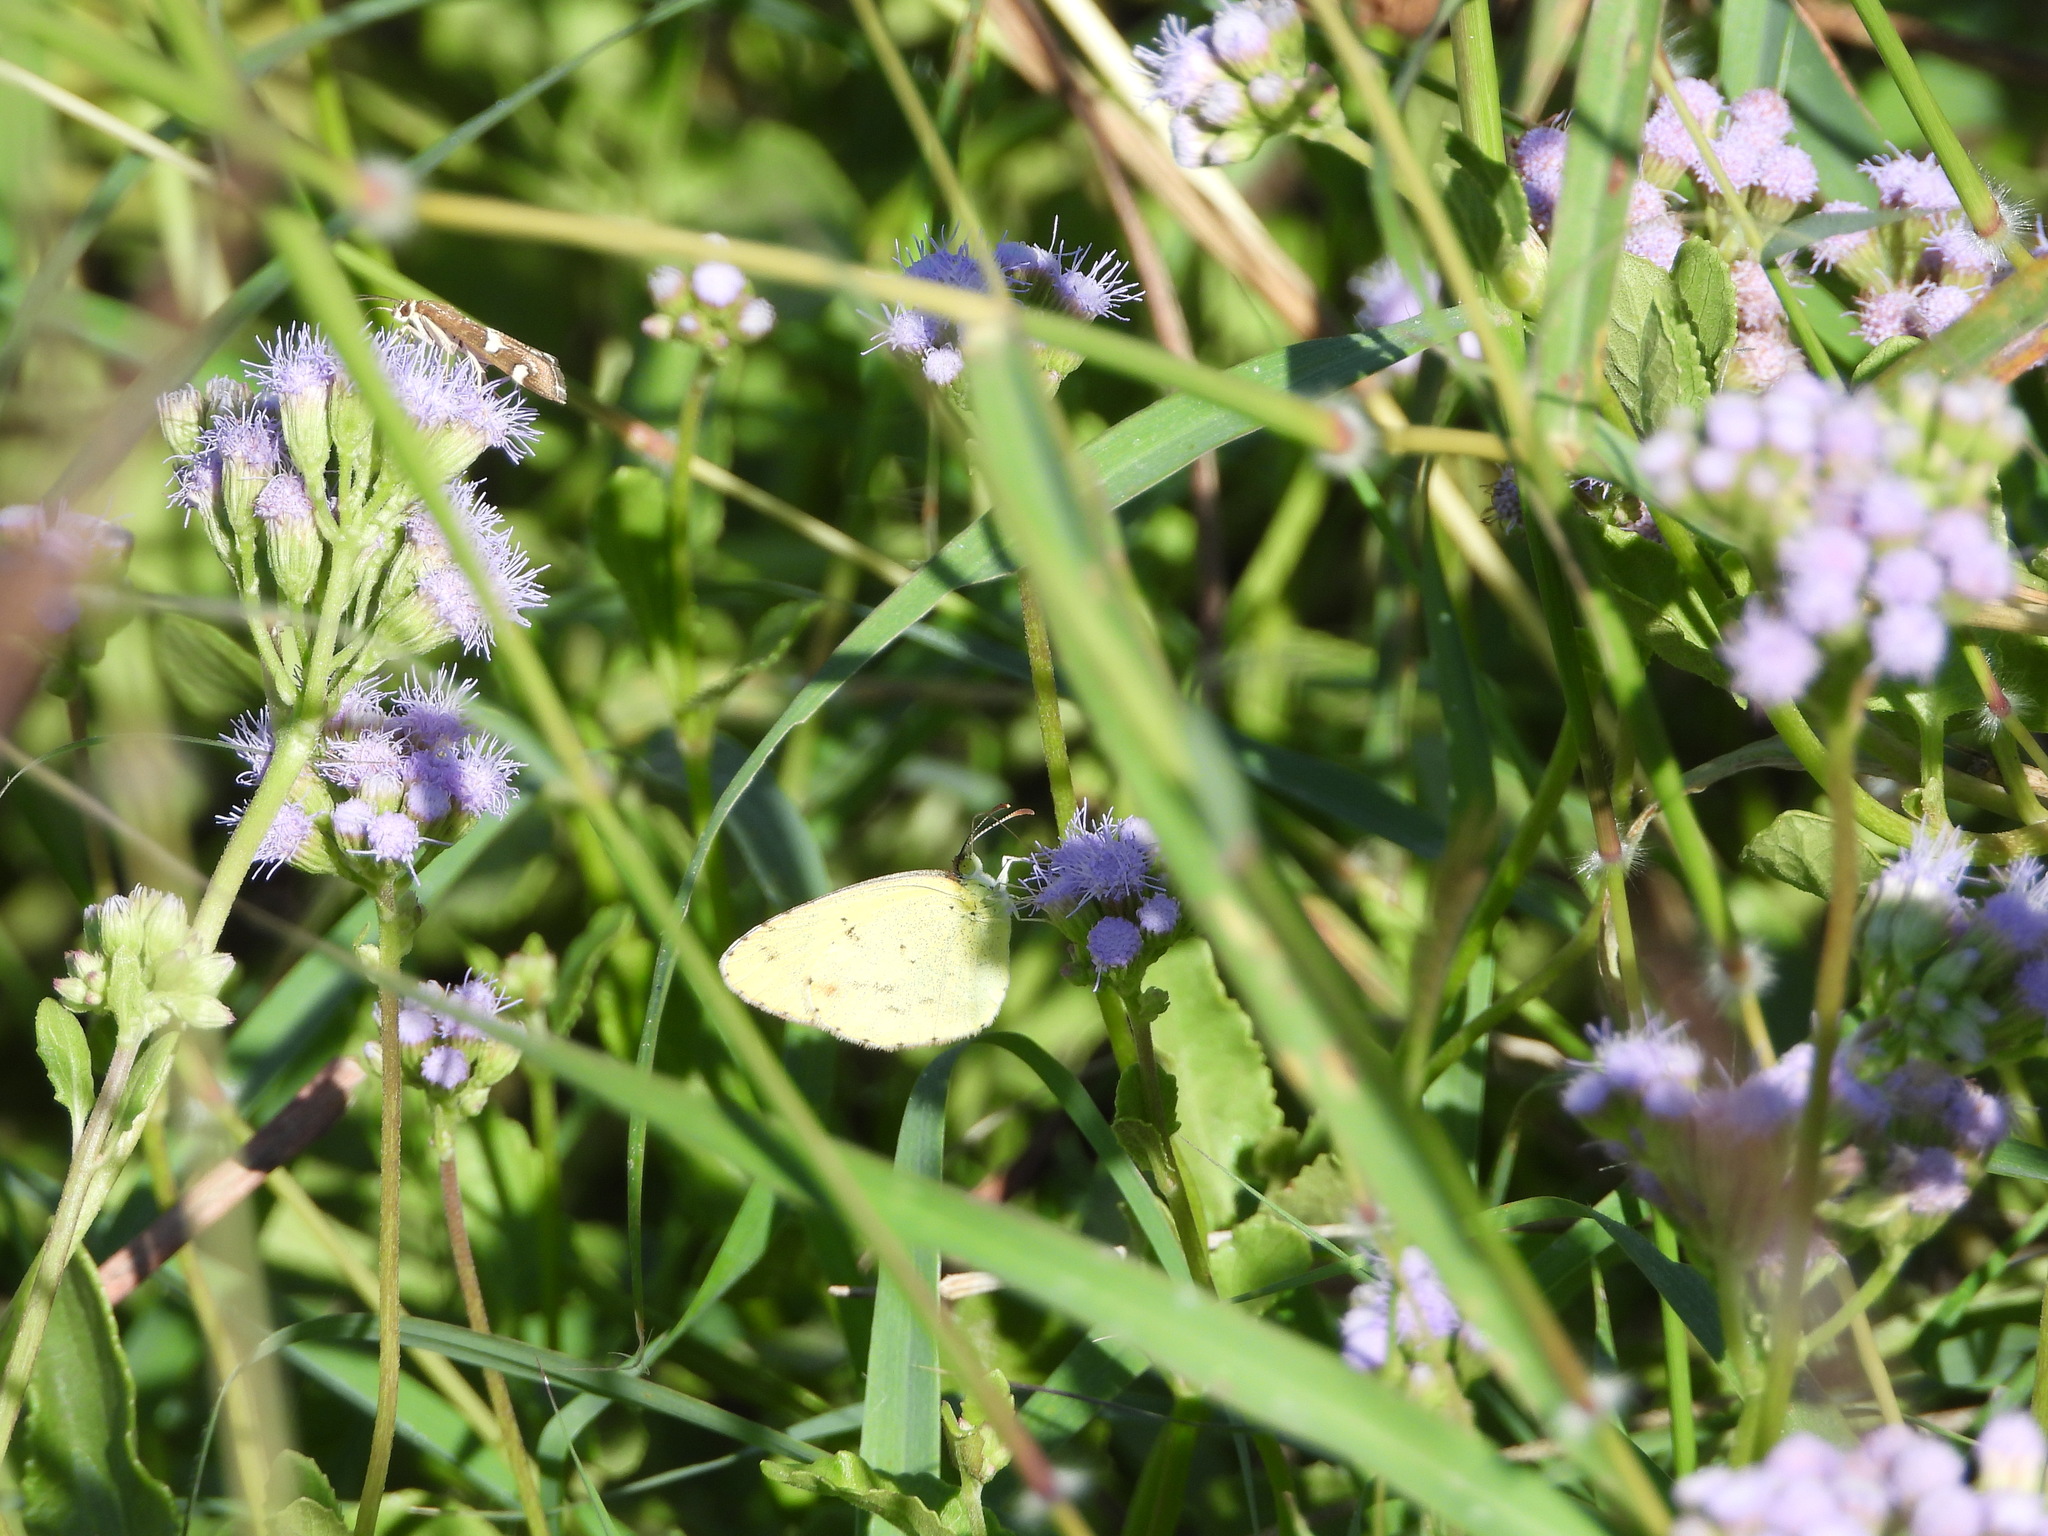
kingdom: Animalia
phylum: Arthropoda
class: Insecta
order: Lepidoptera
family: Pieridae
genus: Pyrisitia
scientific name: Pyrisitia lisa
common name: Little yellow
